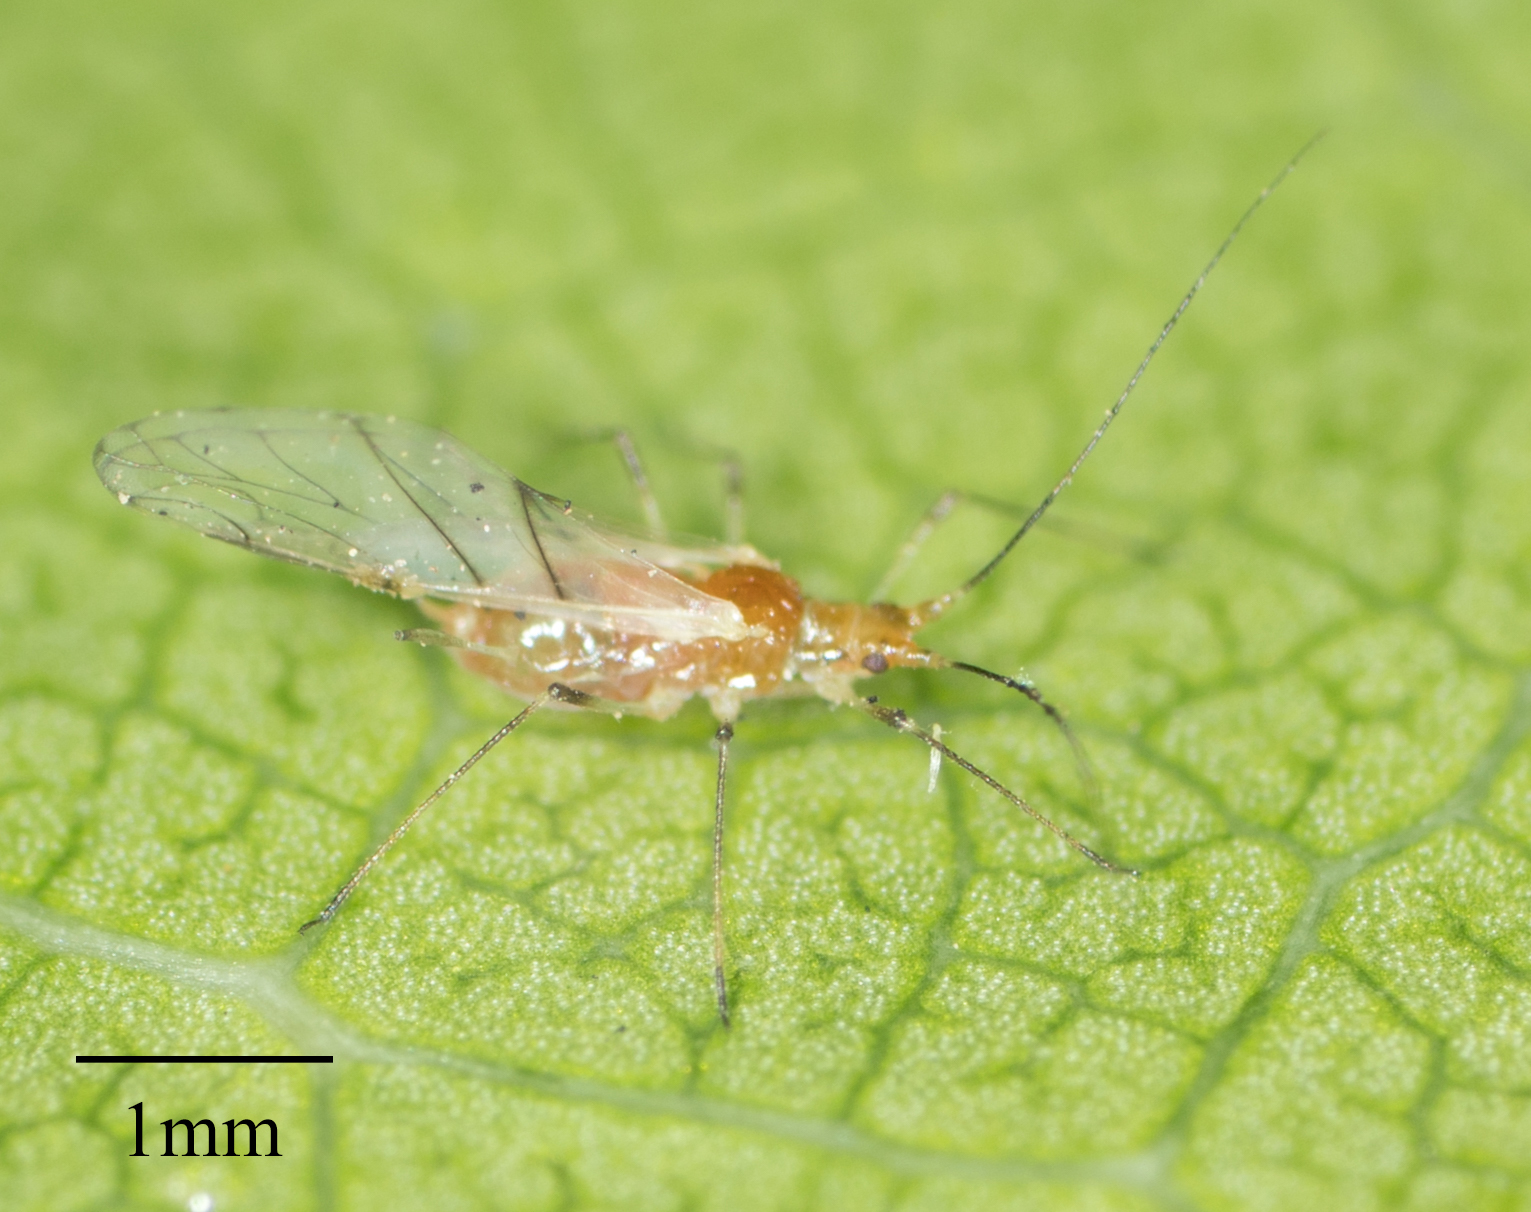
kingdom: Animalia
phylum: Arthropoda
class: Insecta
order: Hemiptera
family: Aphididae
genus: Wahlgreniella
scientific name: Wahlgreniella nervata
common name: Pale green aphid
